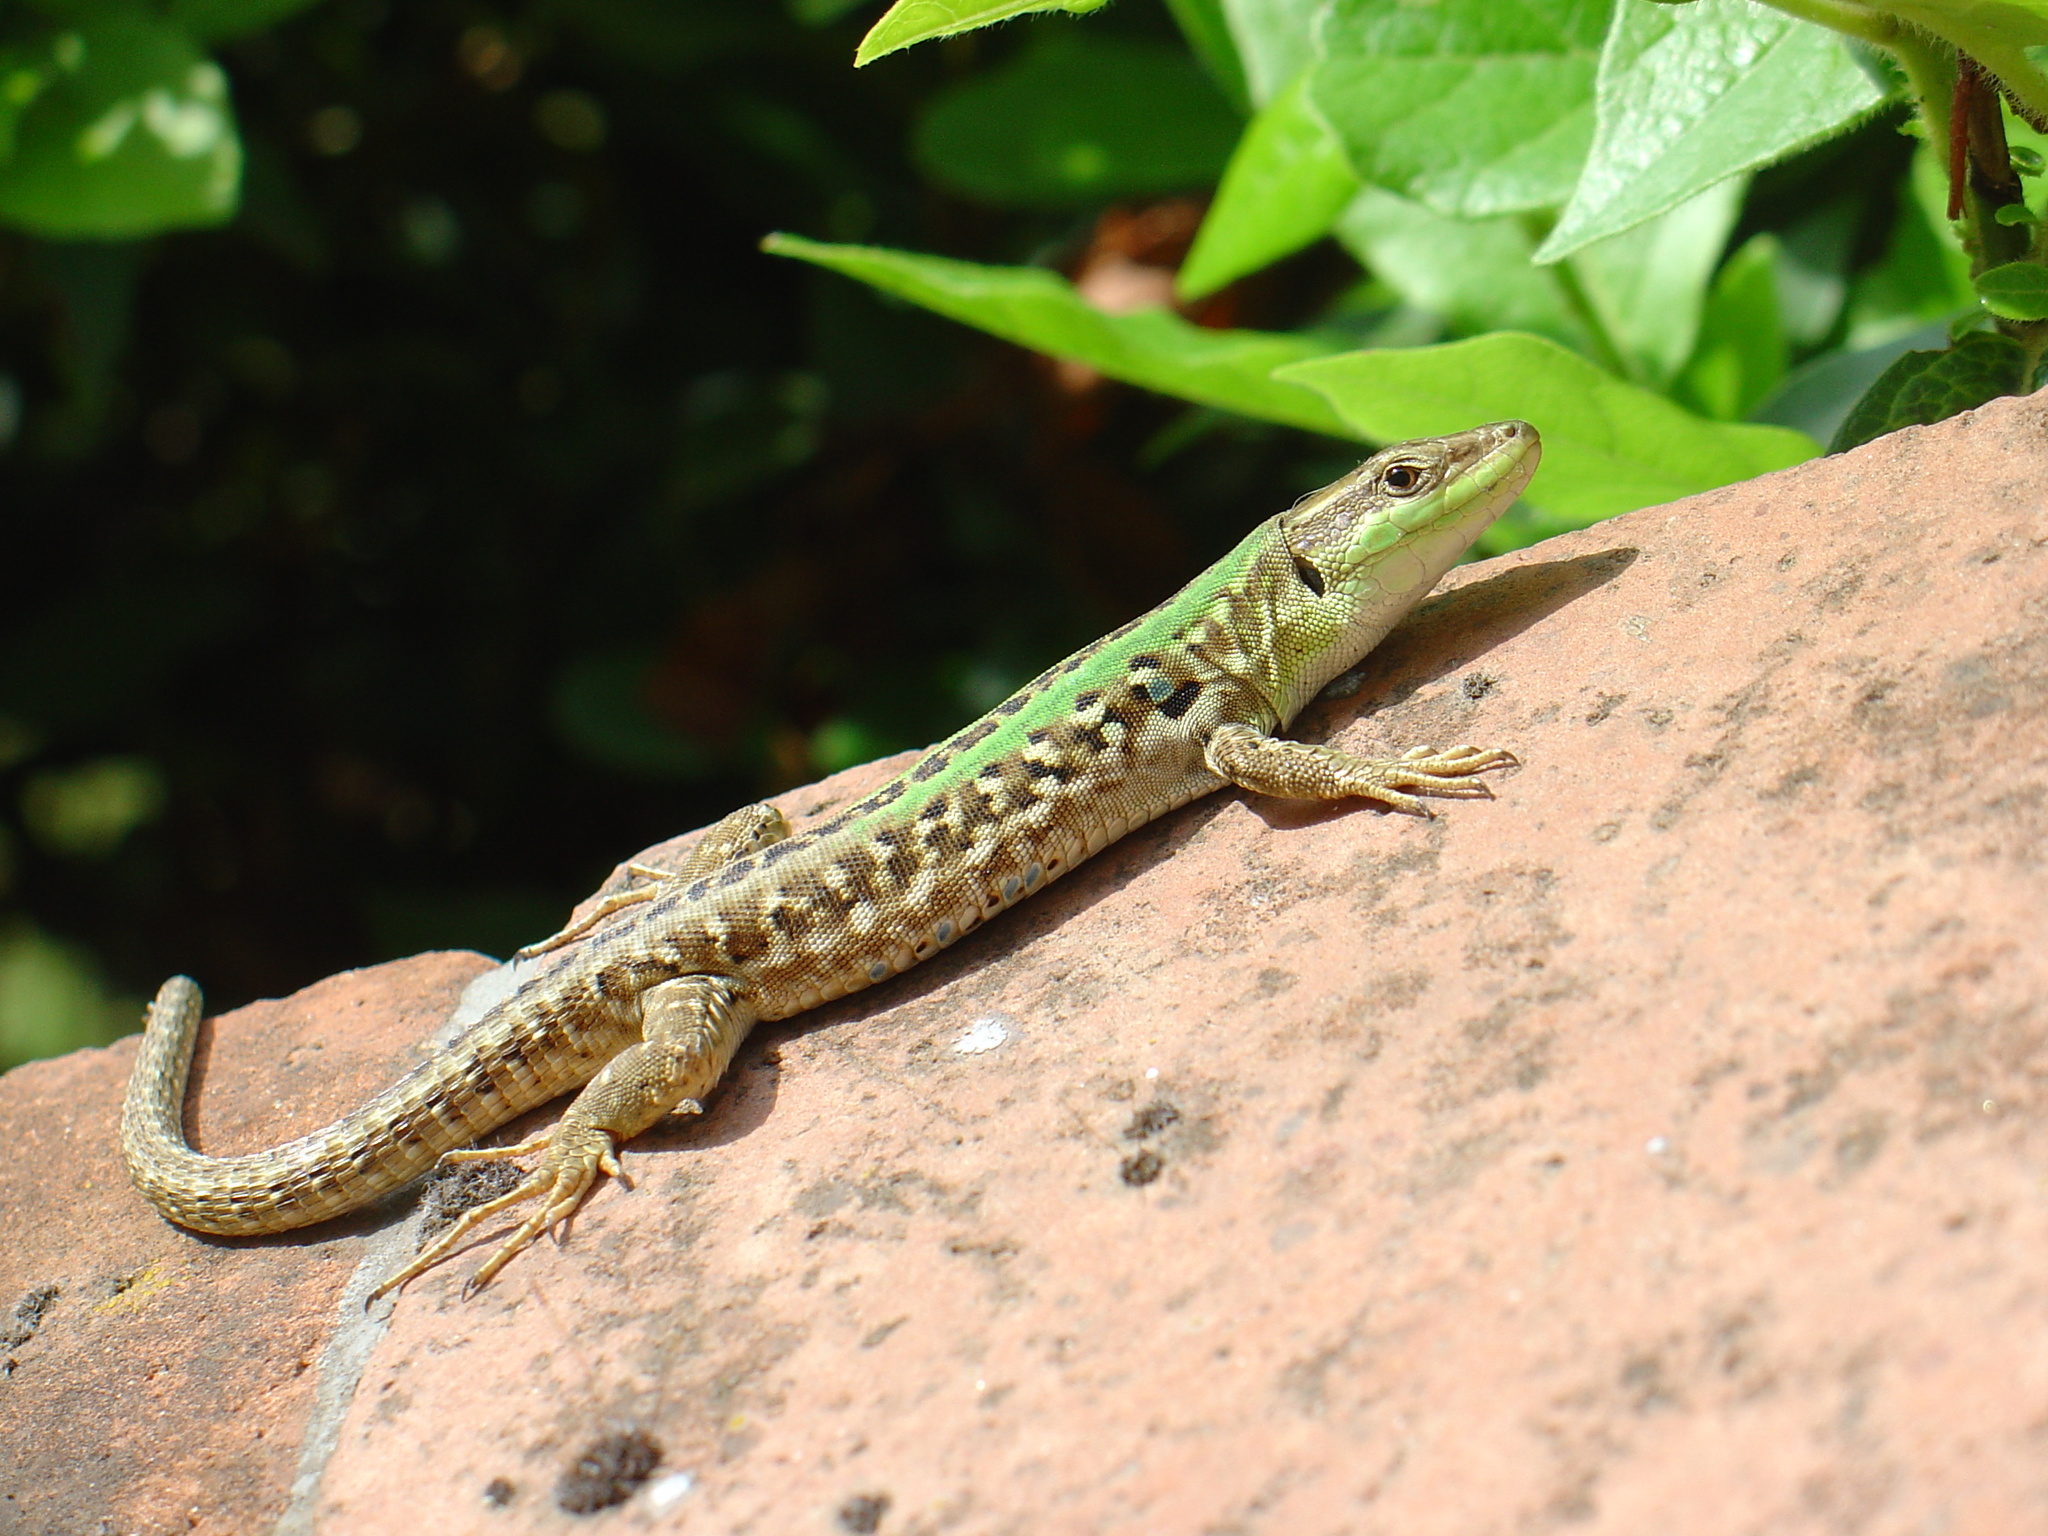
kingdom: Animalia
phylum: Chordata
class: Squamata
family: Lacertidae
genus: Podarcis
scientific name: Podarcis siculus
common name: Italian wall lizard
